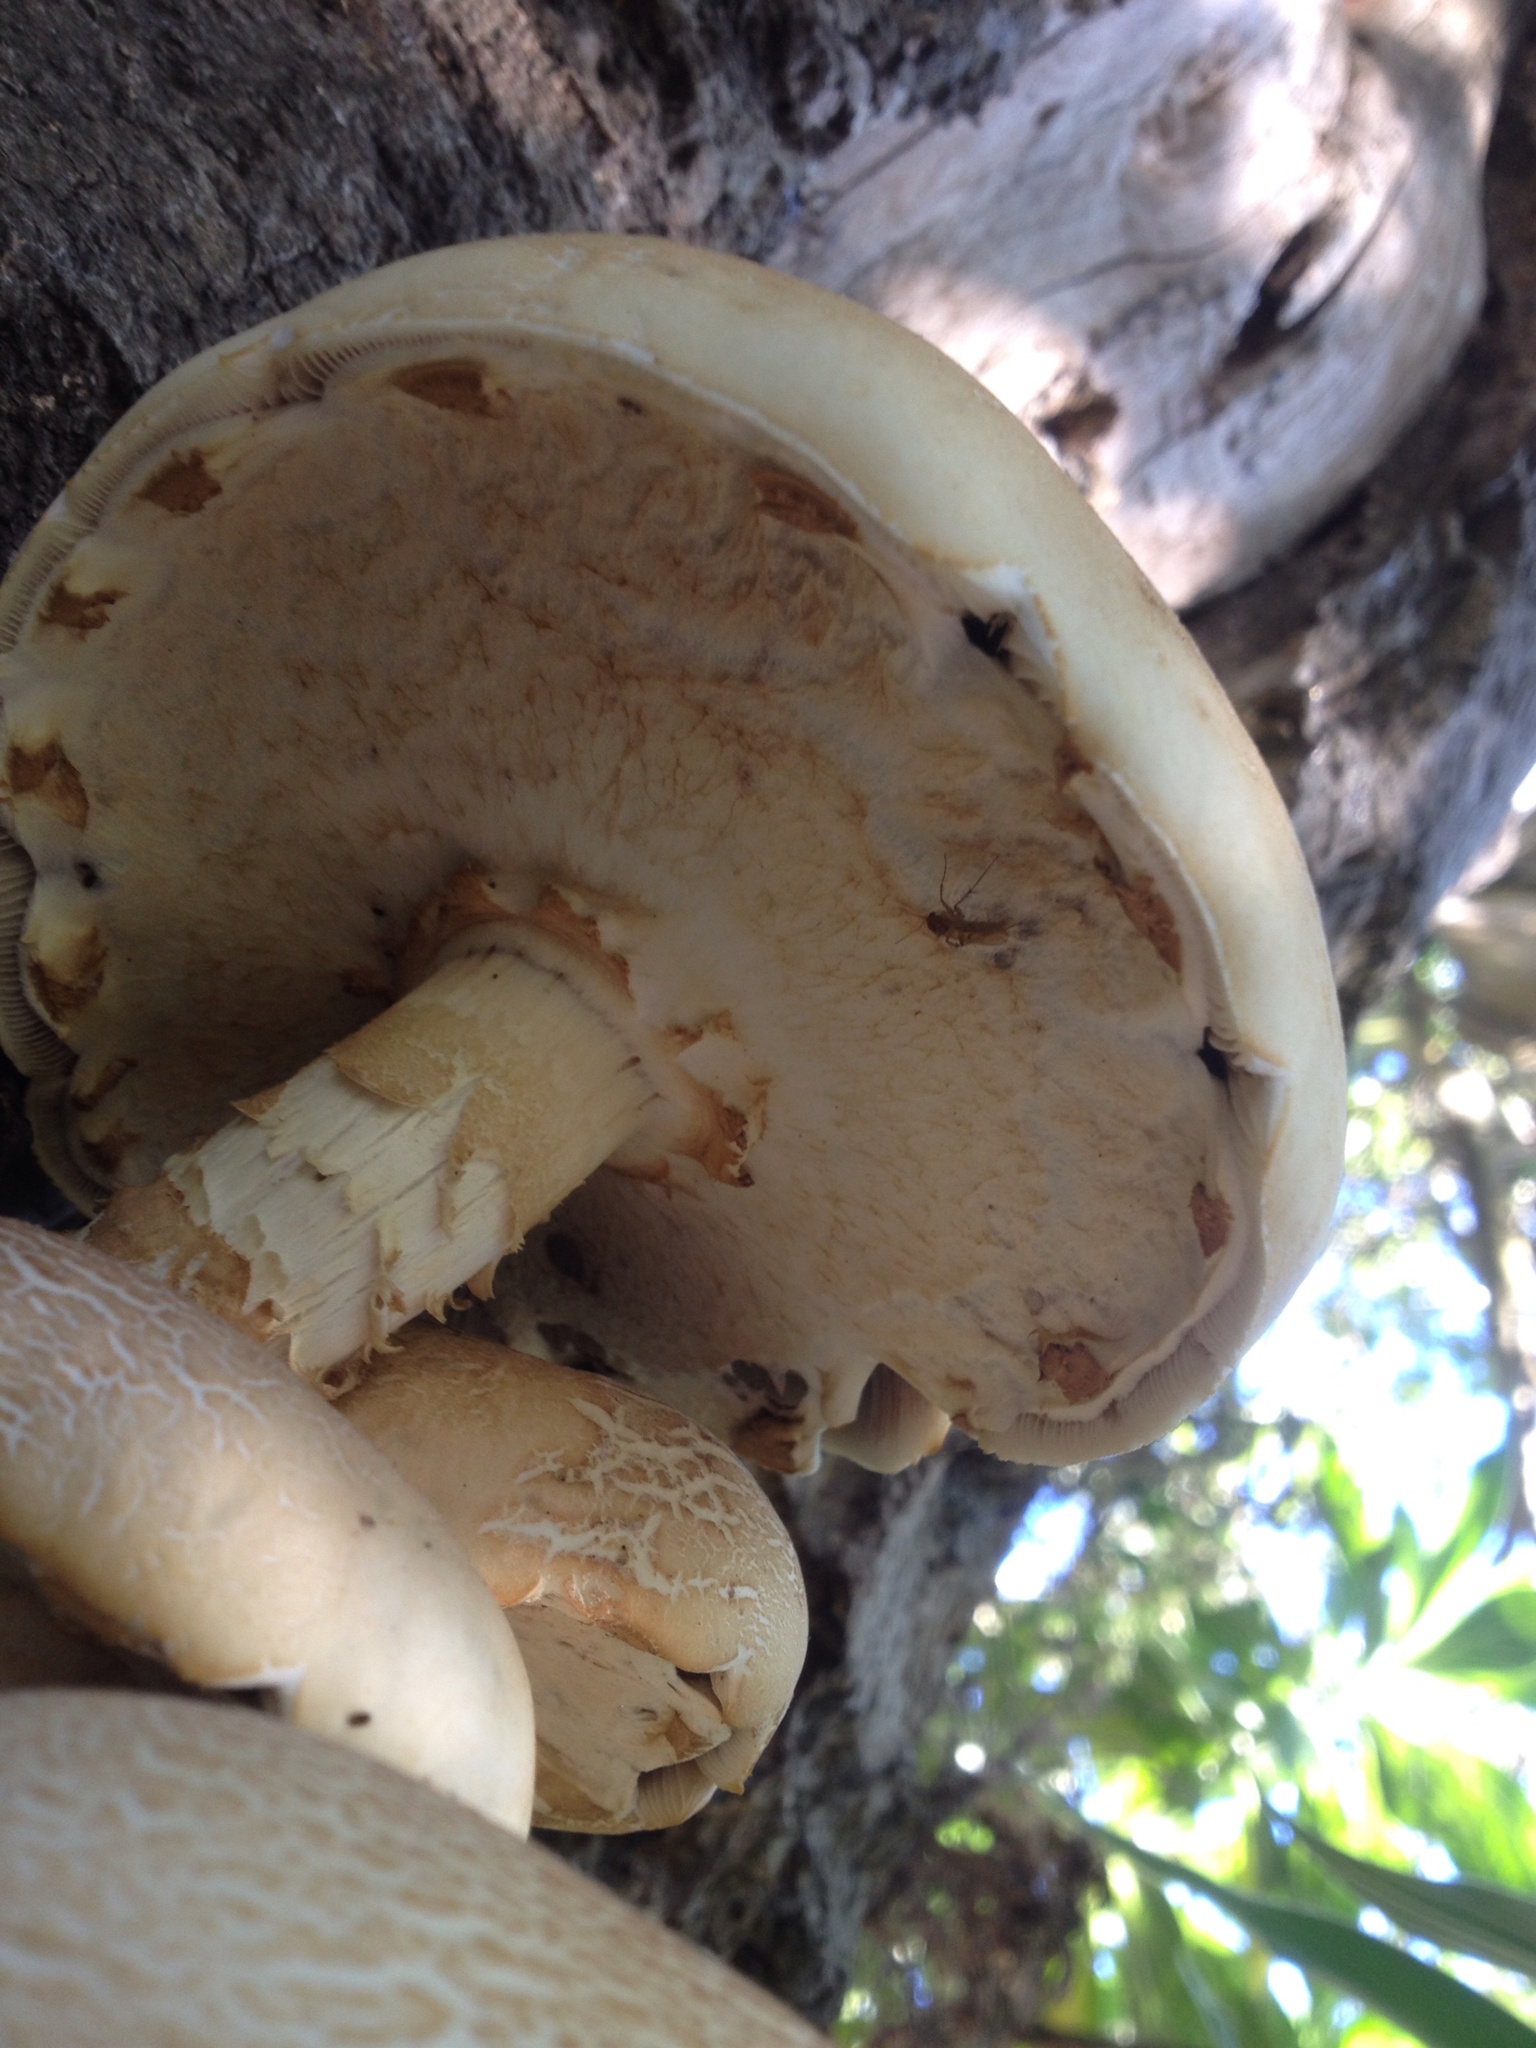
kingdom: Fungi
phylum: Basidiomycota
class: Agaricomycetes
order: Agaricales
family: Tubariaceae
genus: Cyclocybe
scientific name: Cyclocybe parasitica
